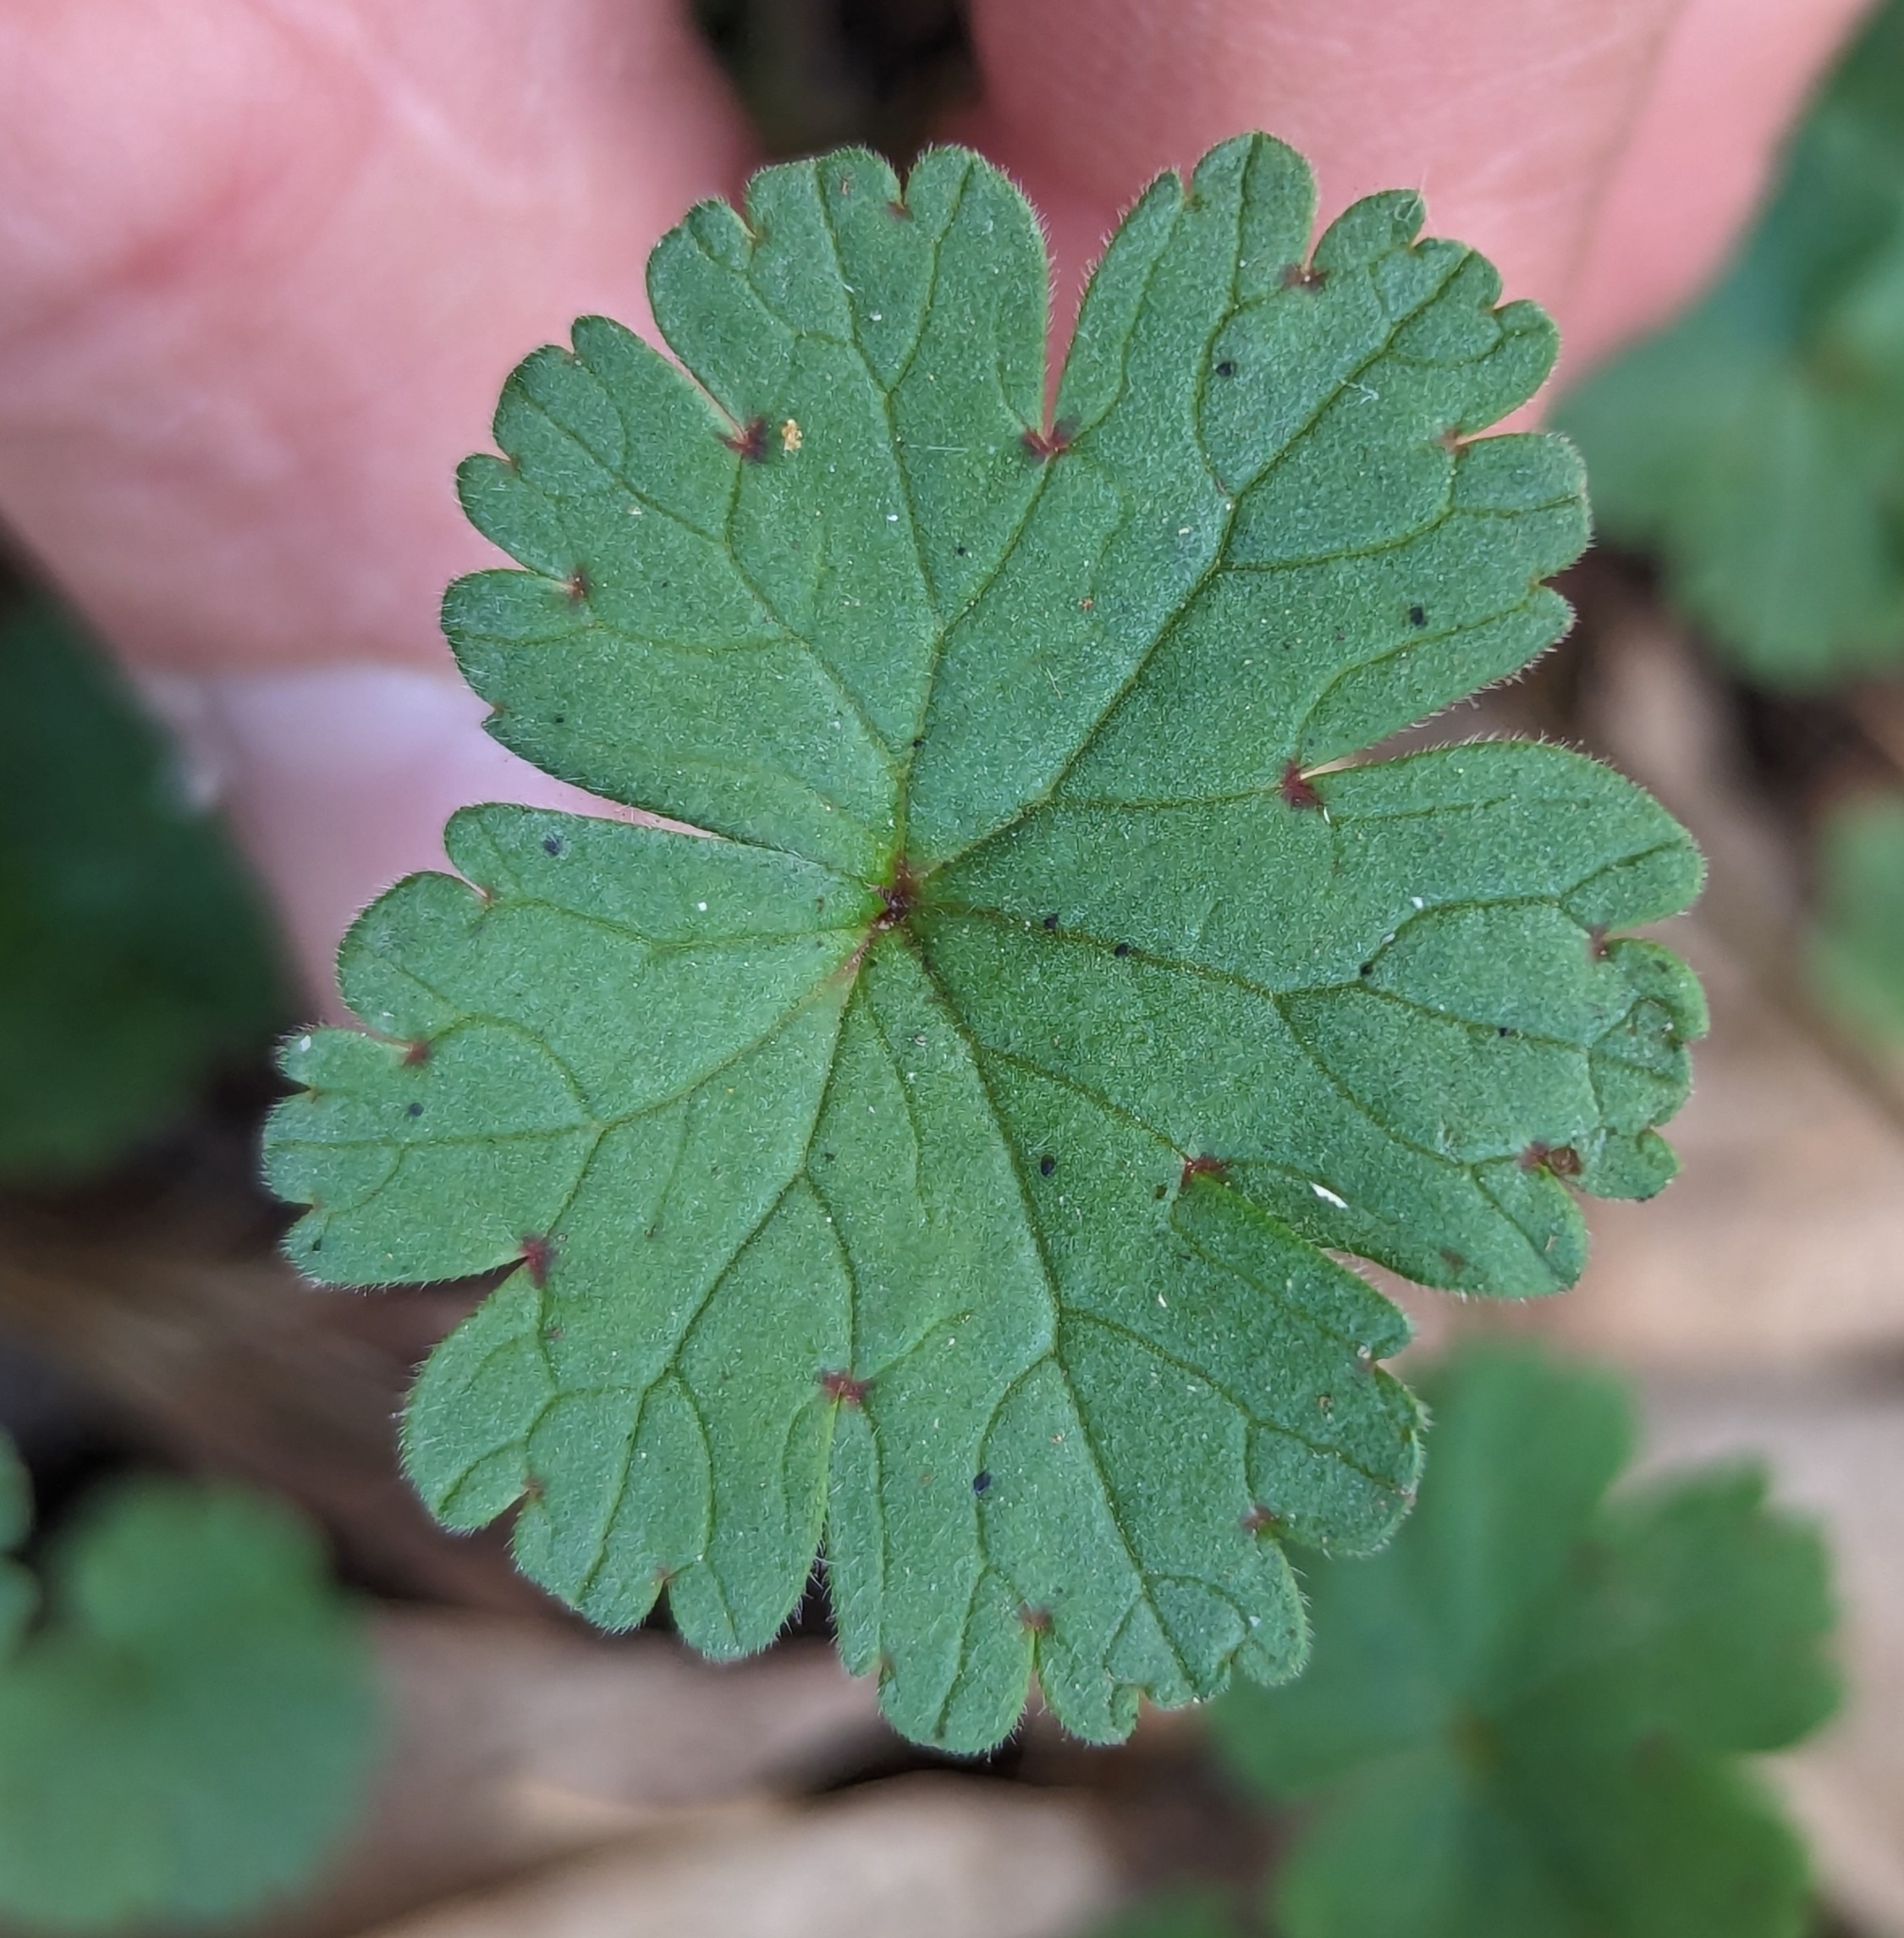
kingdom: Plantae
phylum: Tracheophyta
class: Magnoliopsida
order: Geraniales
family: Geraniaceae
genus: Geranium
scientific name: Geranium rotundifolium
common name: Round-leaved crane's-bill
